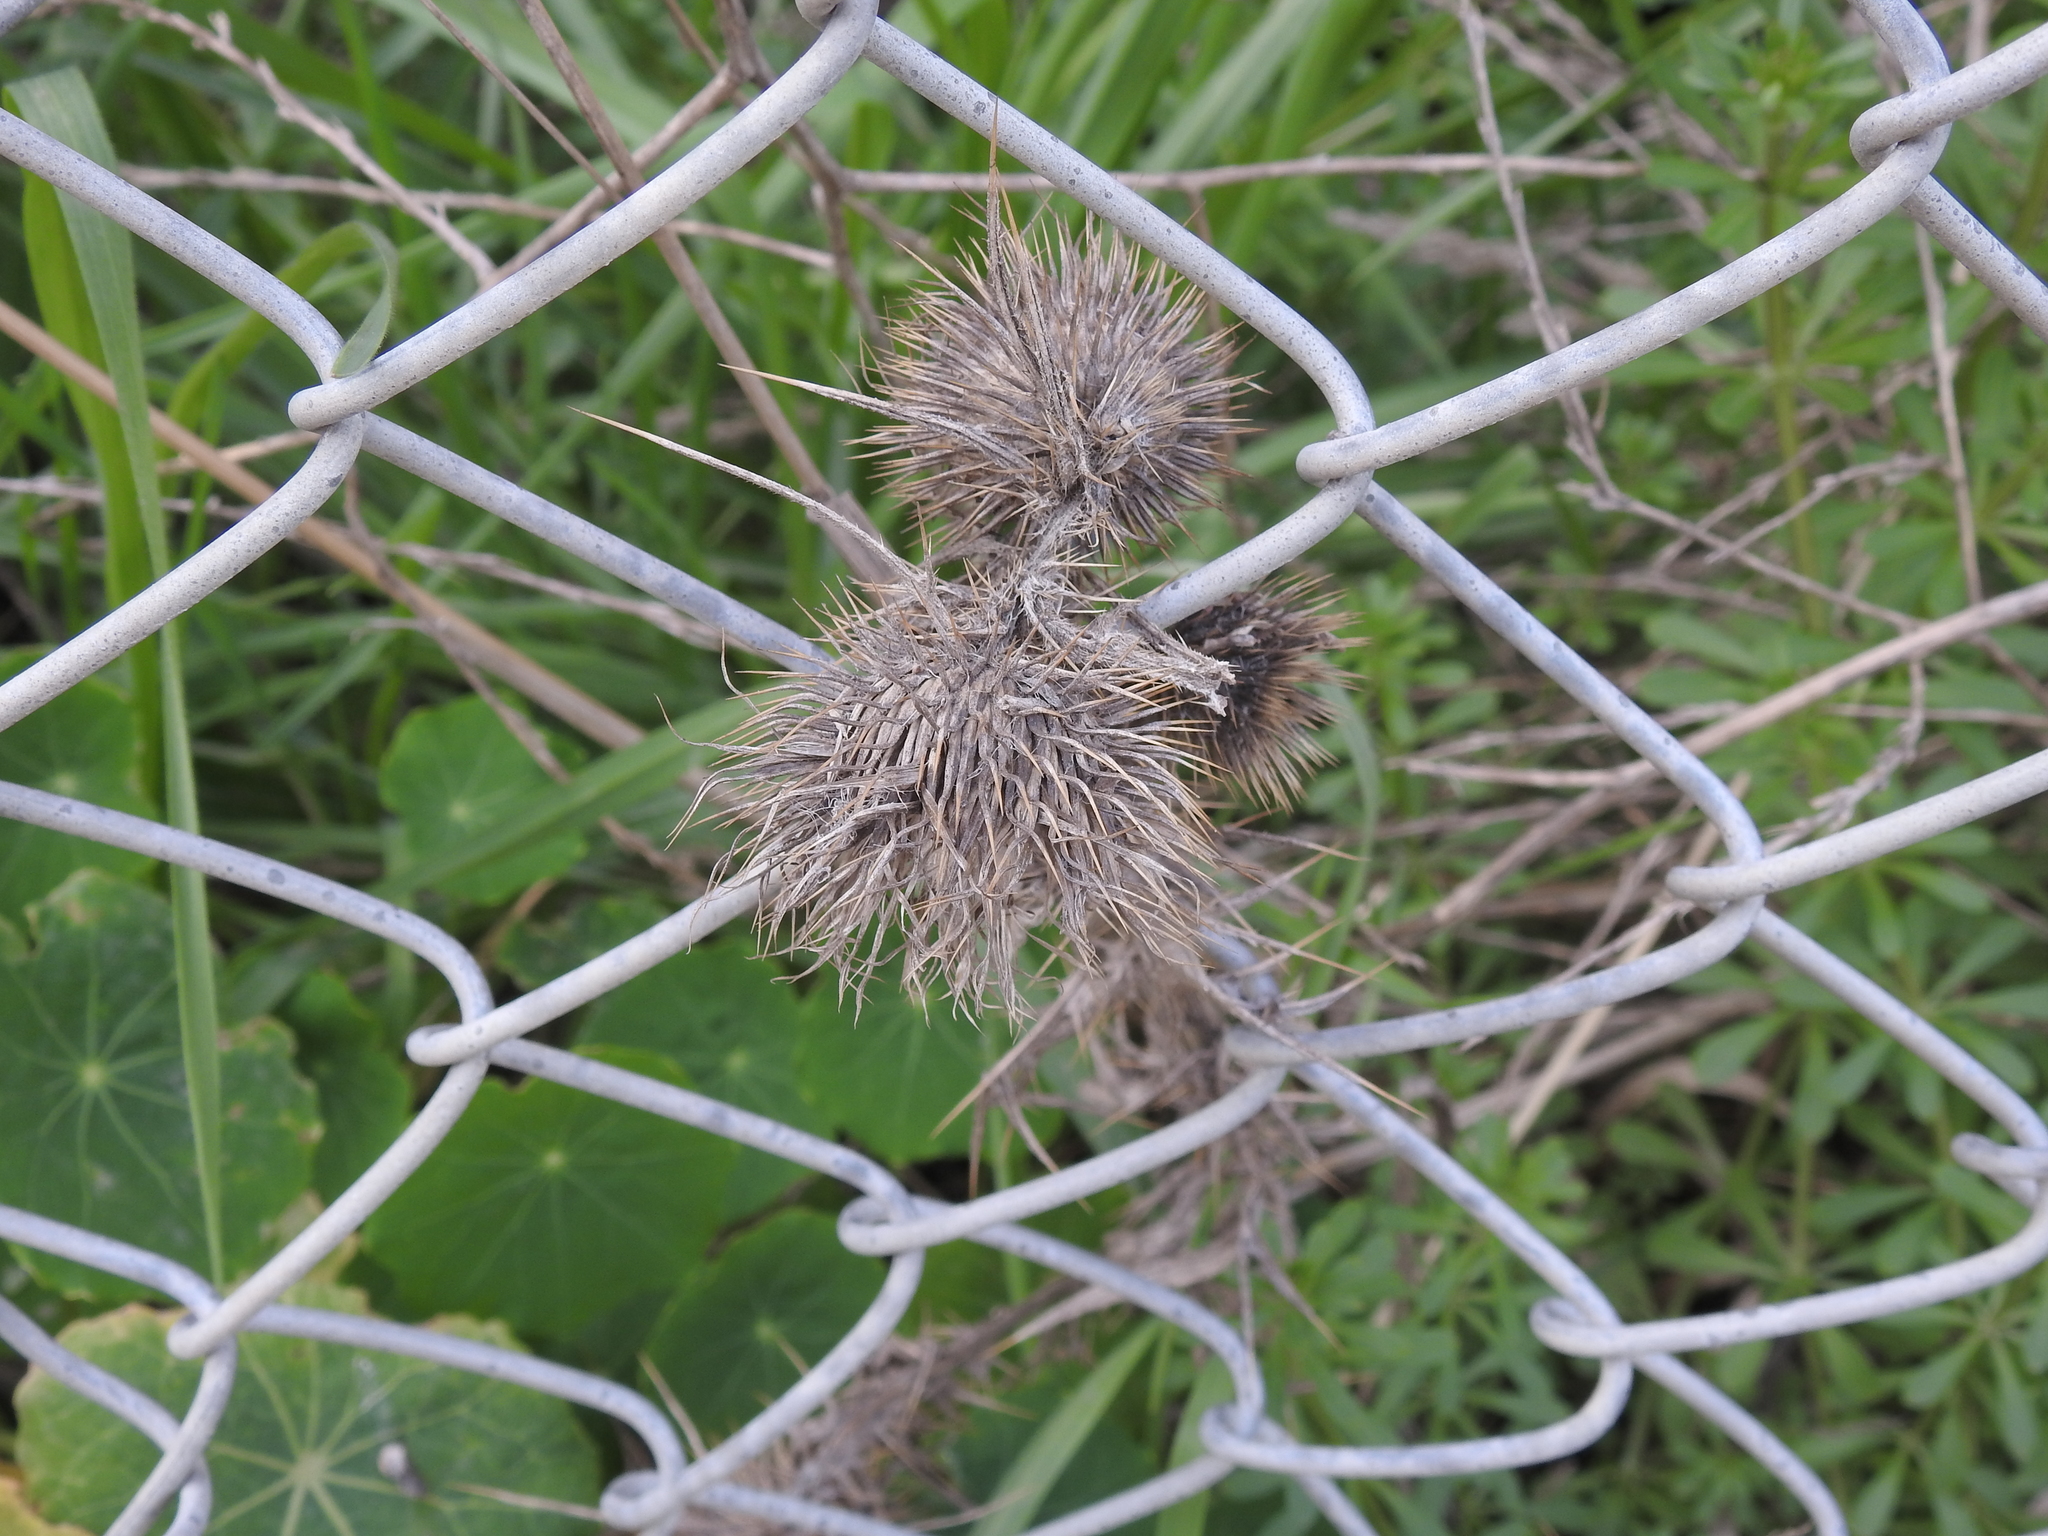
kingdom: Plantae
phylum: Tracheophyta
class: Magnoliopsida
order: Asterales
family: Asteraceae
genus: Cirsium
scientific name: Cirsium vulgare
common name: Bull thistle
